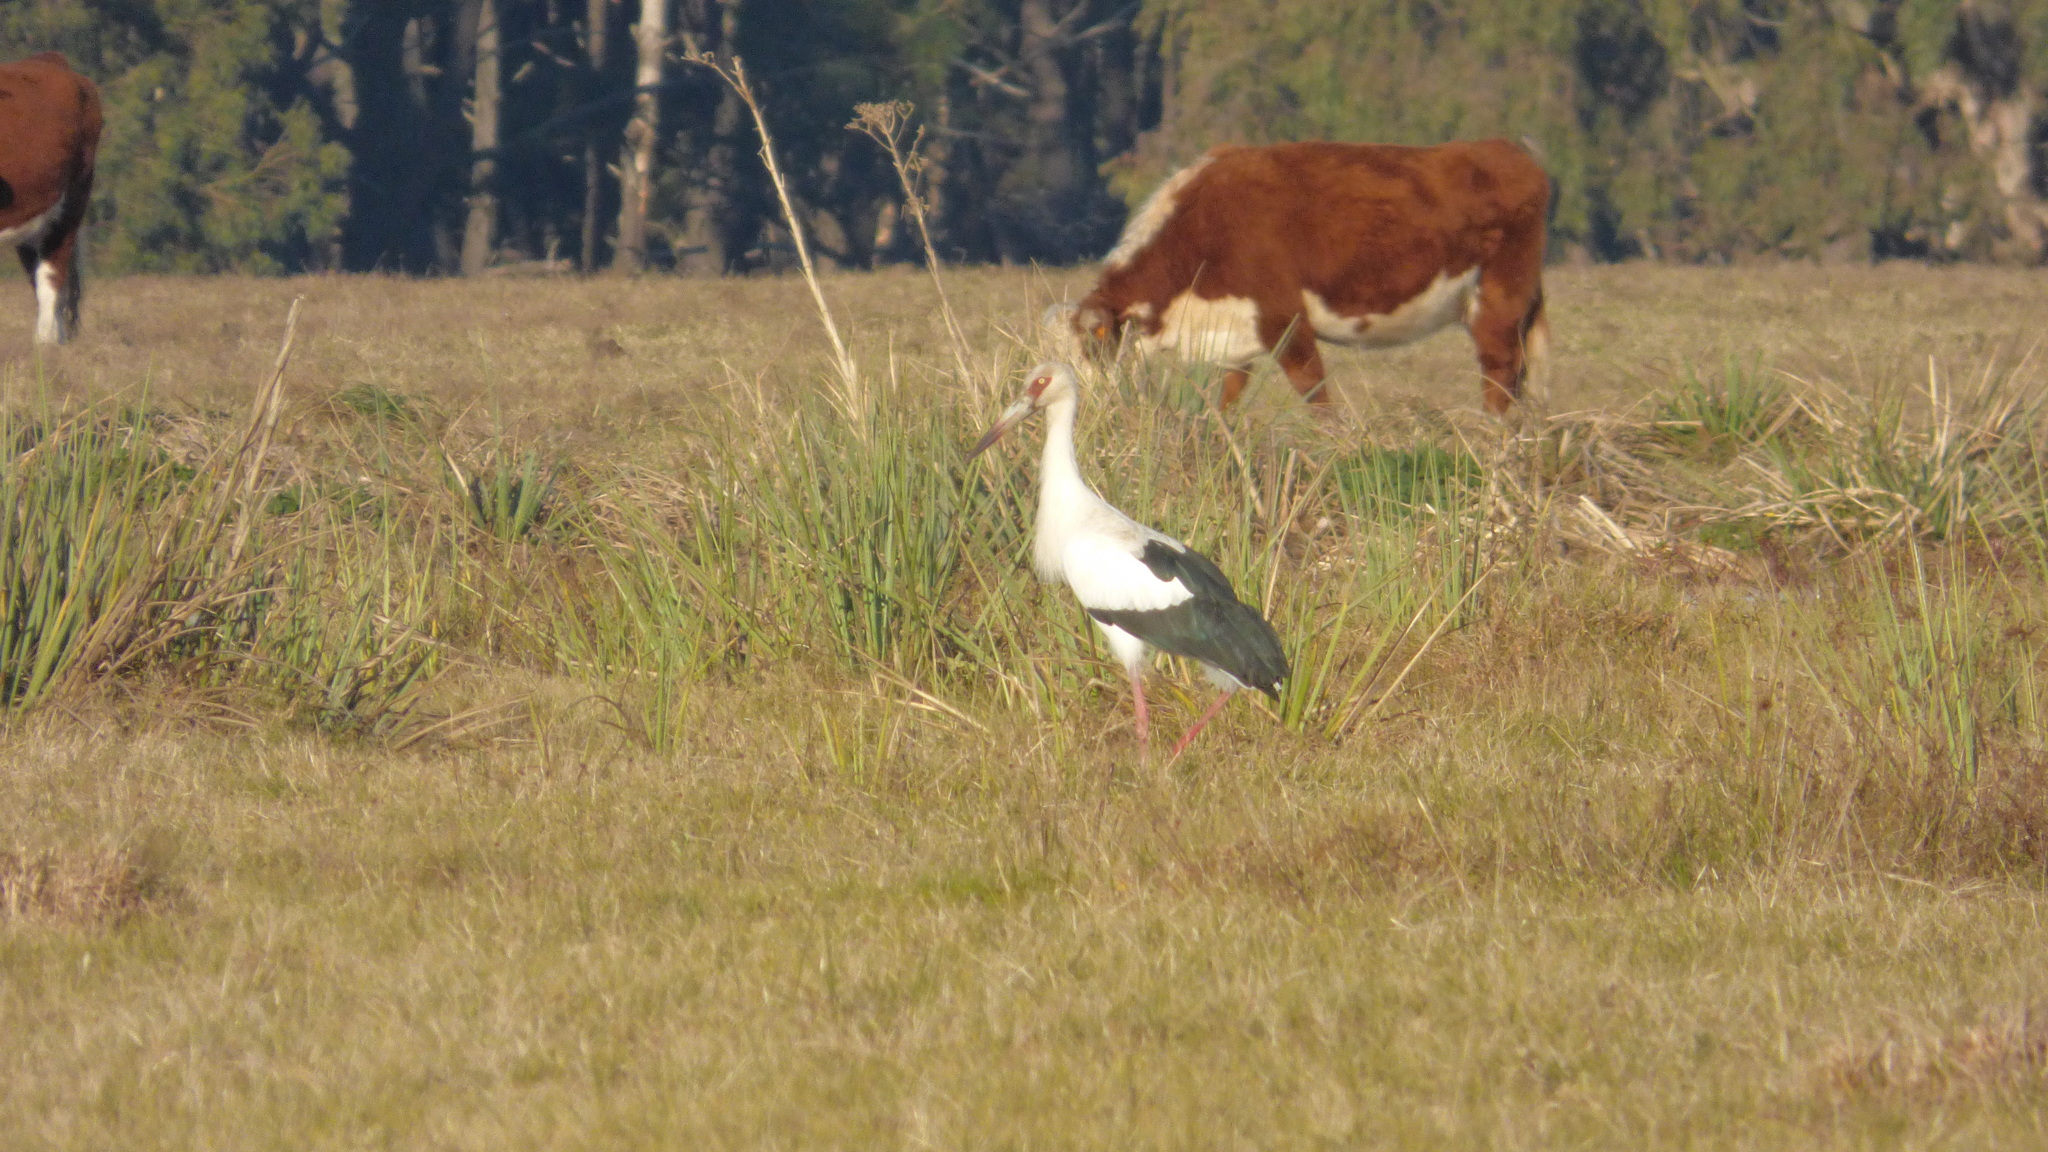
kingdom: Animalia
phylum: Chordata
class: Aves
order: Ciconiiformes
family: Ciconiidae
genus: Ciconia
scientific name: Ciconia maguari
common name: Maguari stork
